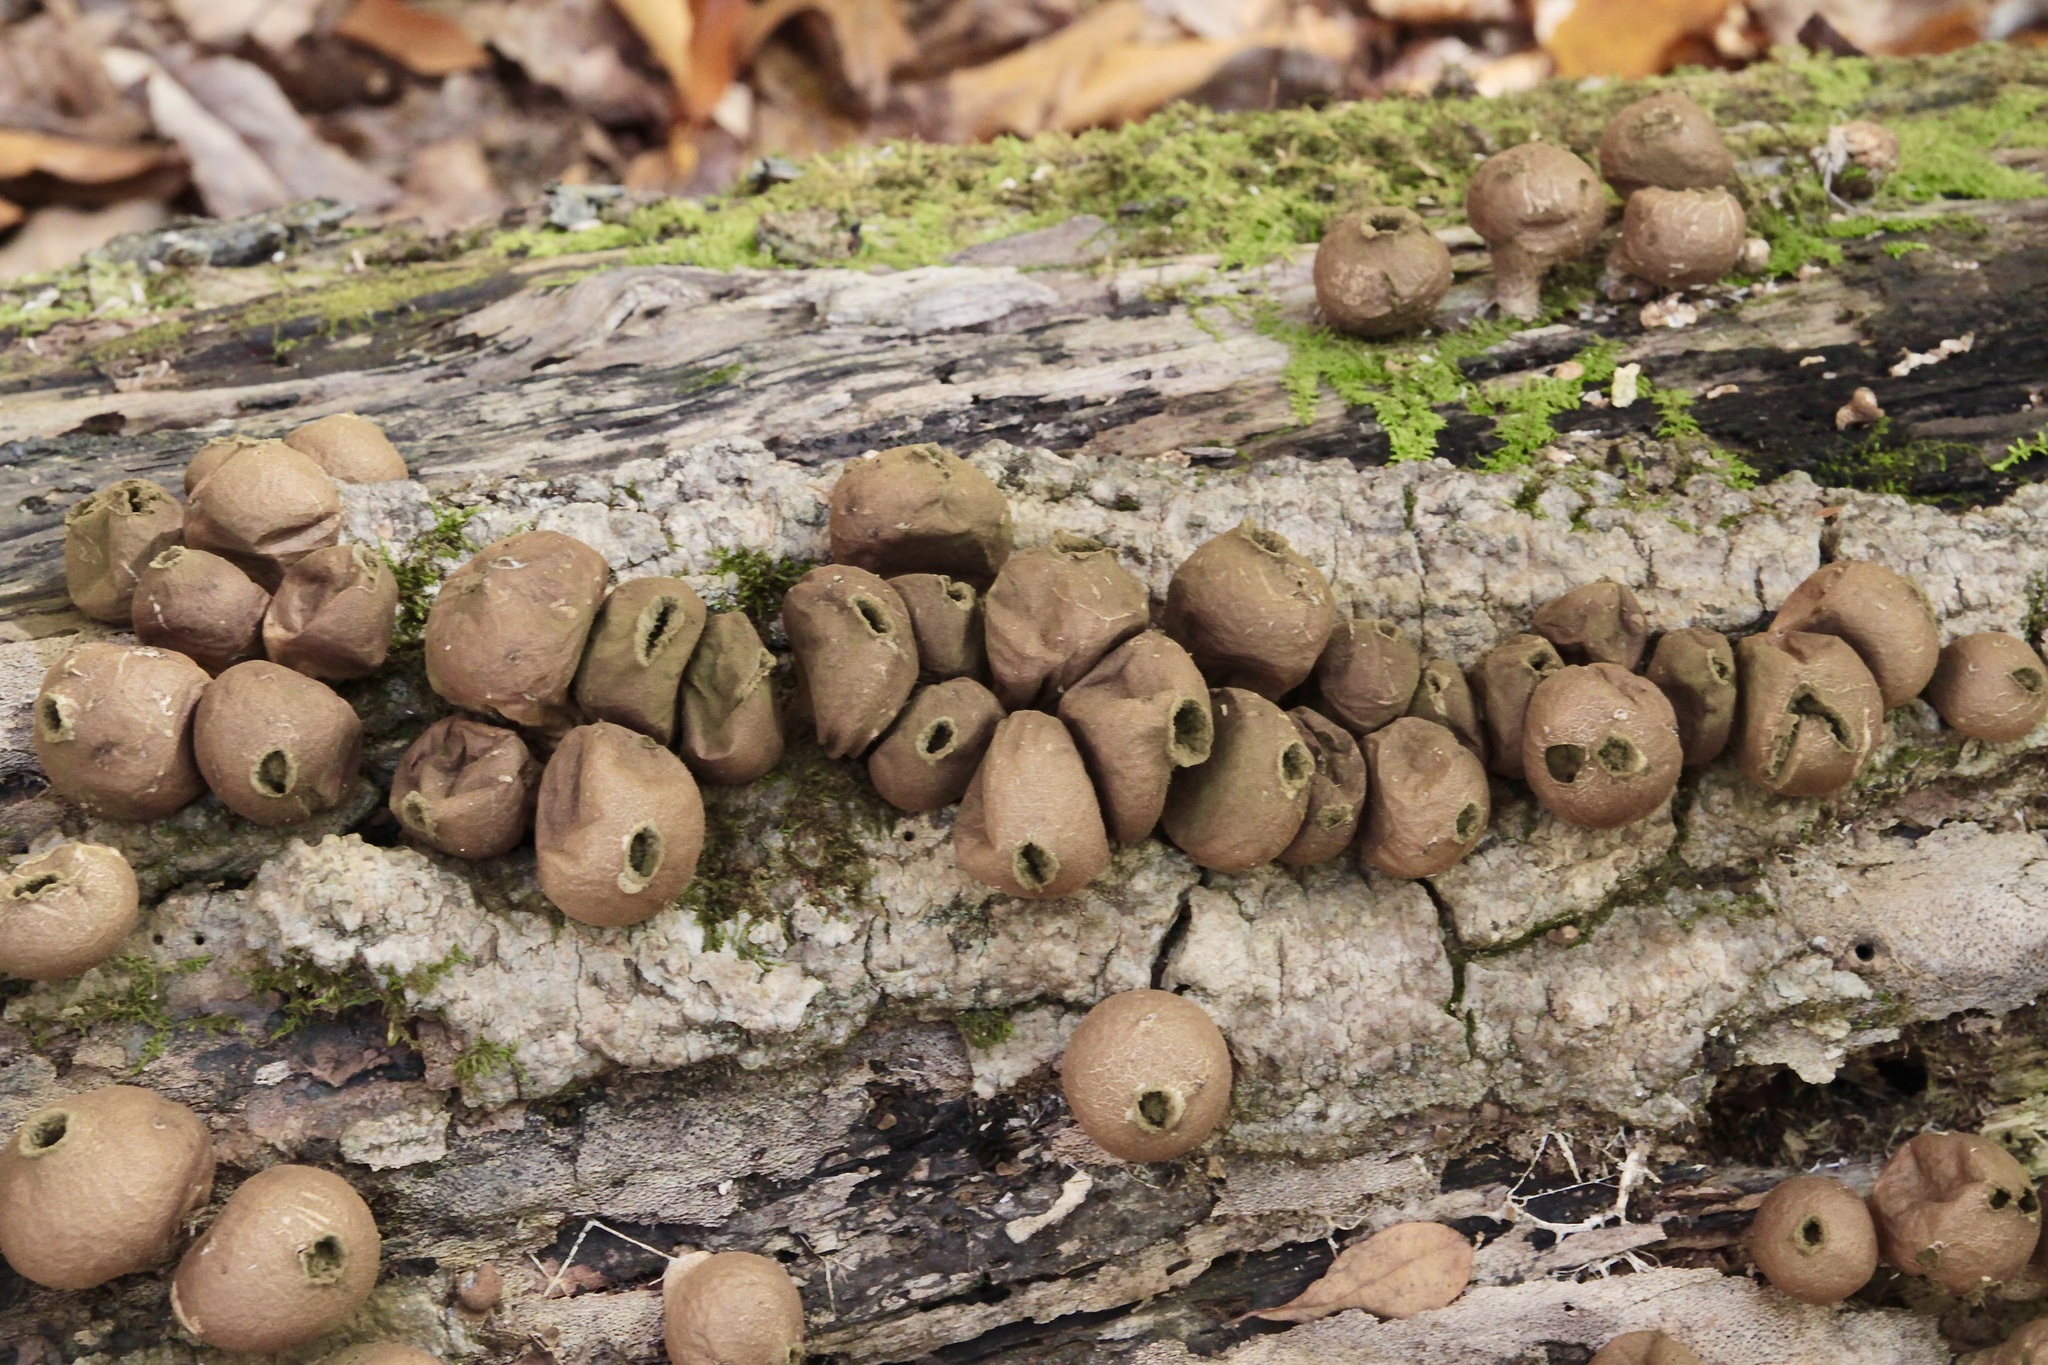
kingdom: Fungi
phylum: Basidiomycota
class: Agaricomycetes
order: Agaricales
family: Lycoperdaceae
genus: Apioperdon
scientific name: Apioperdon pyriforme
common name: Pear-shaped puffball
